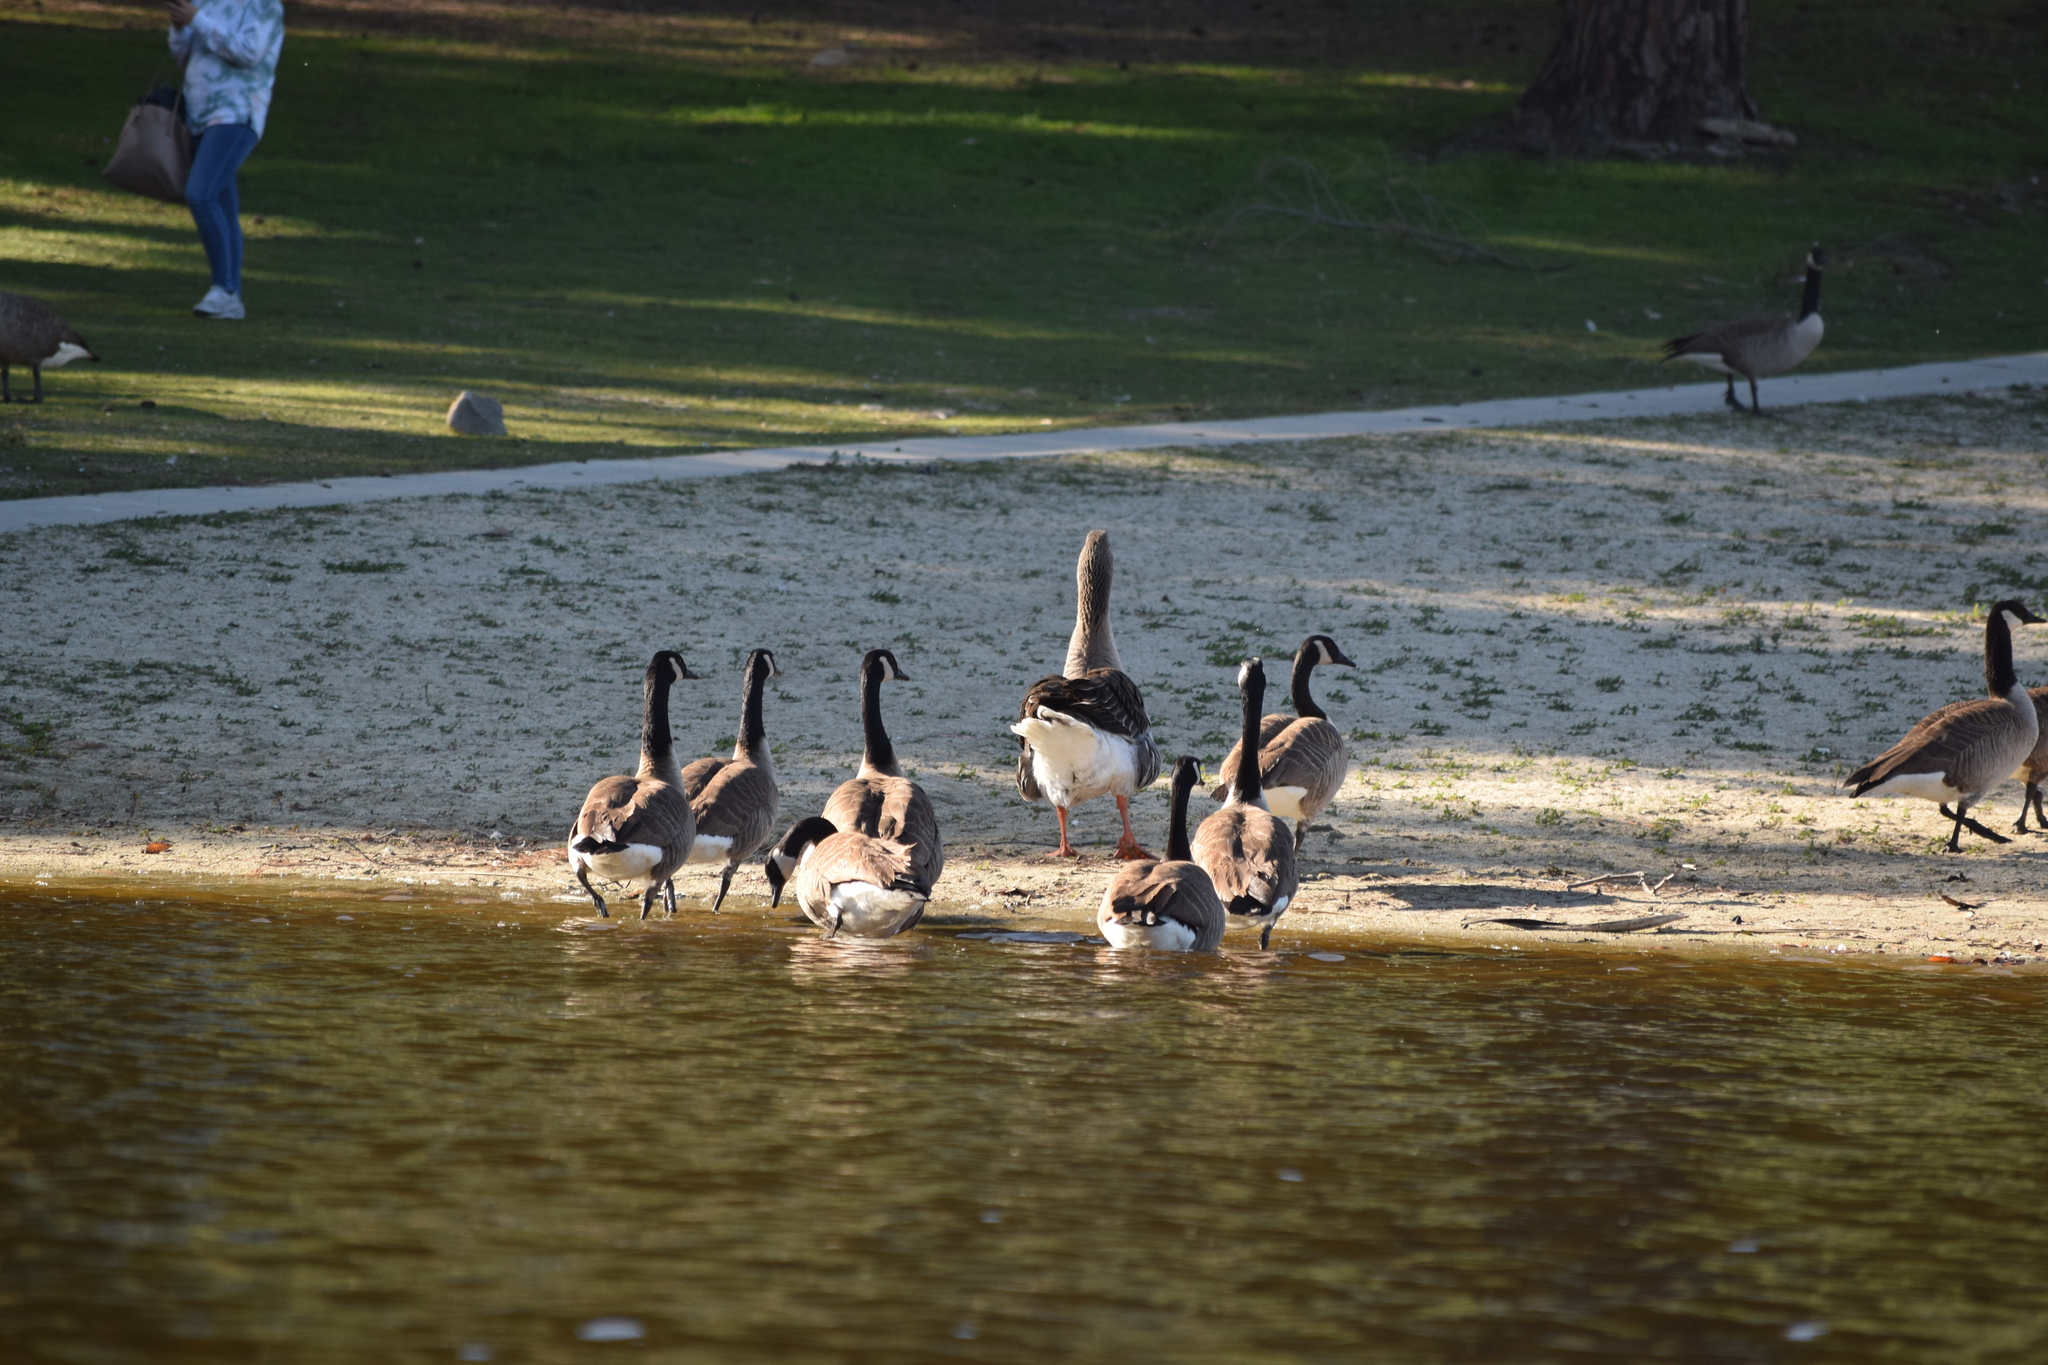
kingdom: Animalia
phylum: Chordata
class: Aves
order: Anseriformes
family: Anatidae
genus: Branta
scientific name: Branta canadensis
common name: Canada goose
